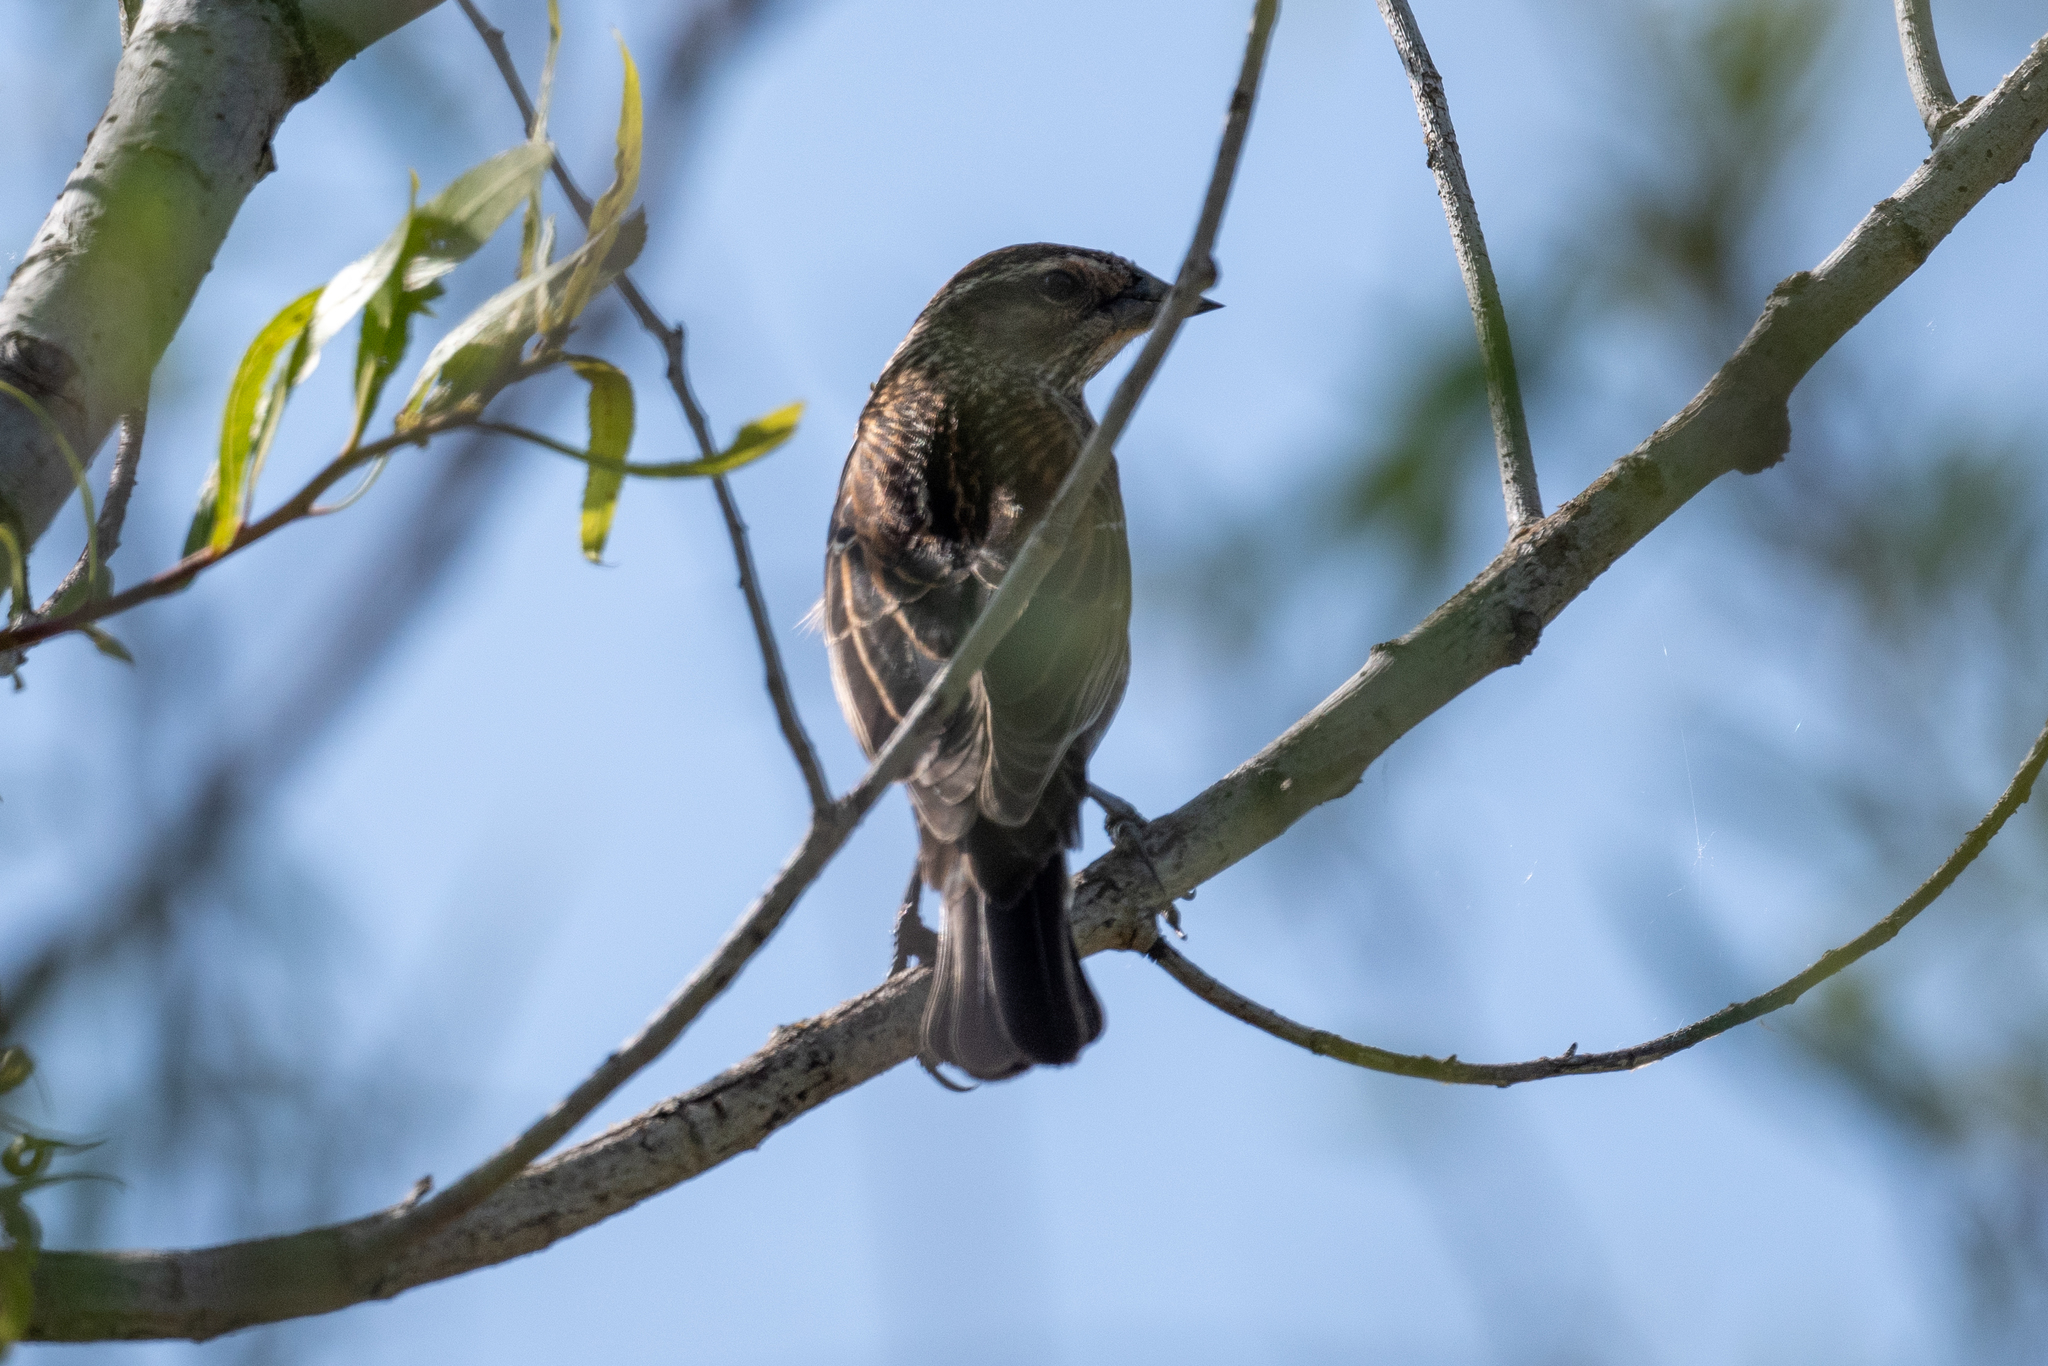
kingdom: Animalia
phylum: Chordata
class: Aves
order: Passeriformes
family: Icteridae
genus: Agelaius
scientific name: Agelaius phoeniceus
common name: Red-winged blackbird
